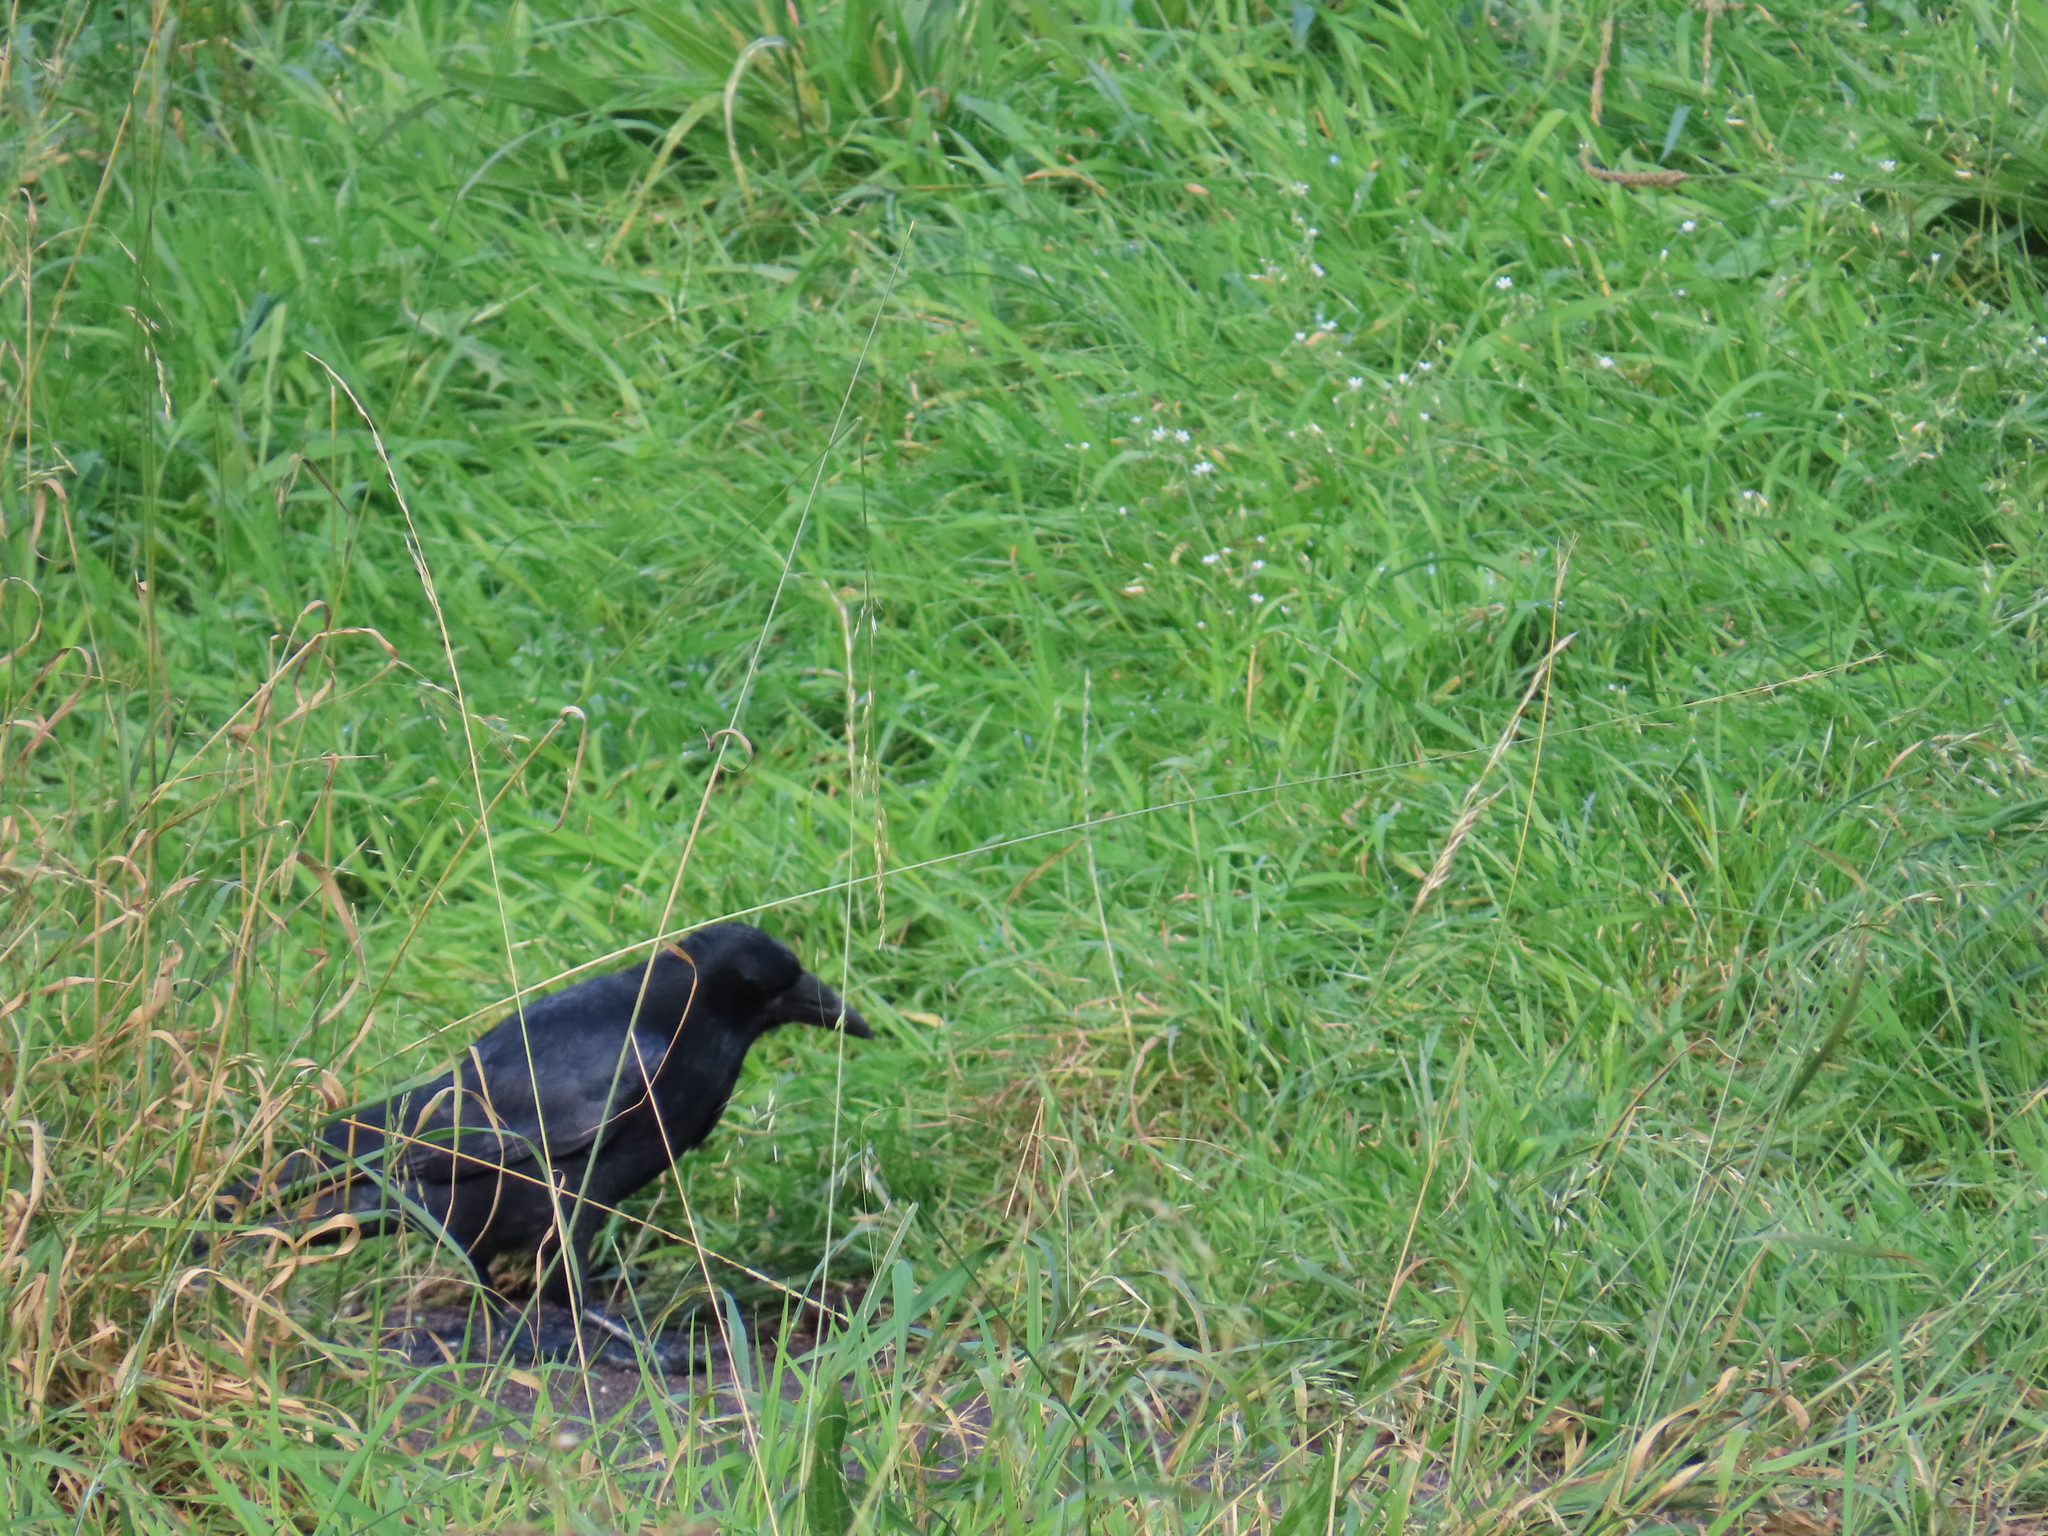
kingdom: Animalia
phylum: Chordata
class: Aves
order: Passeriformes
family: Corvidae
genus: Corvus
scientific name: Corvus corone
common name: Carrion crow
